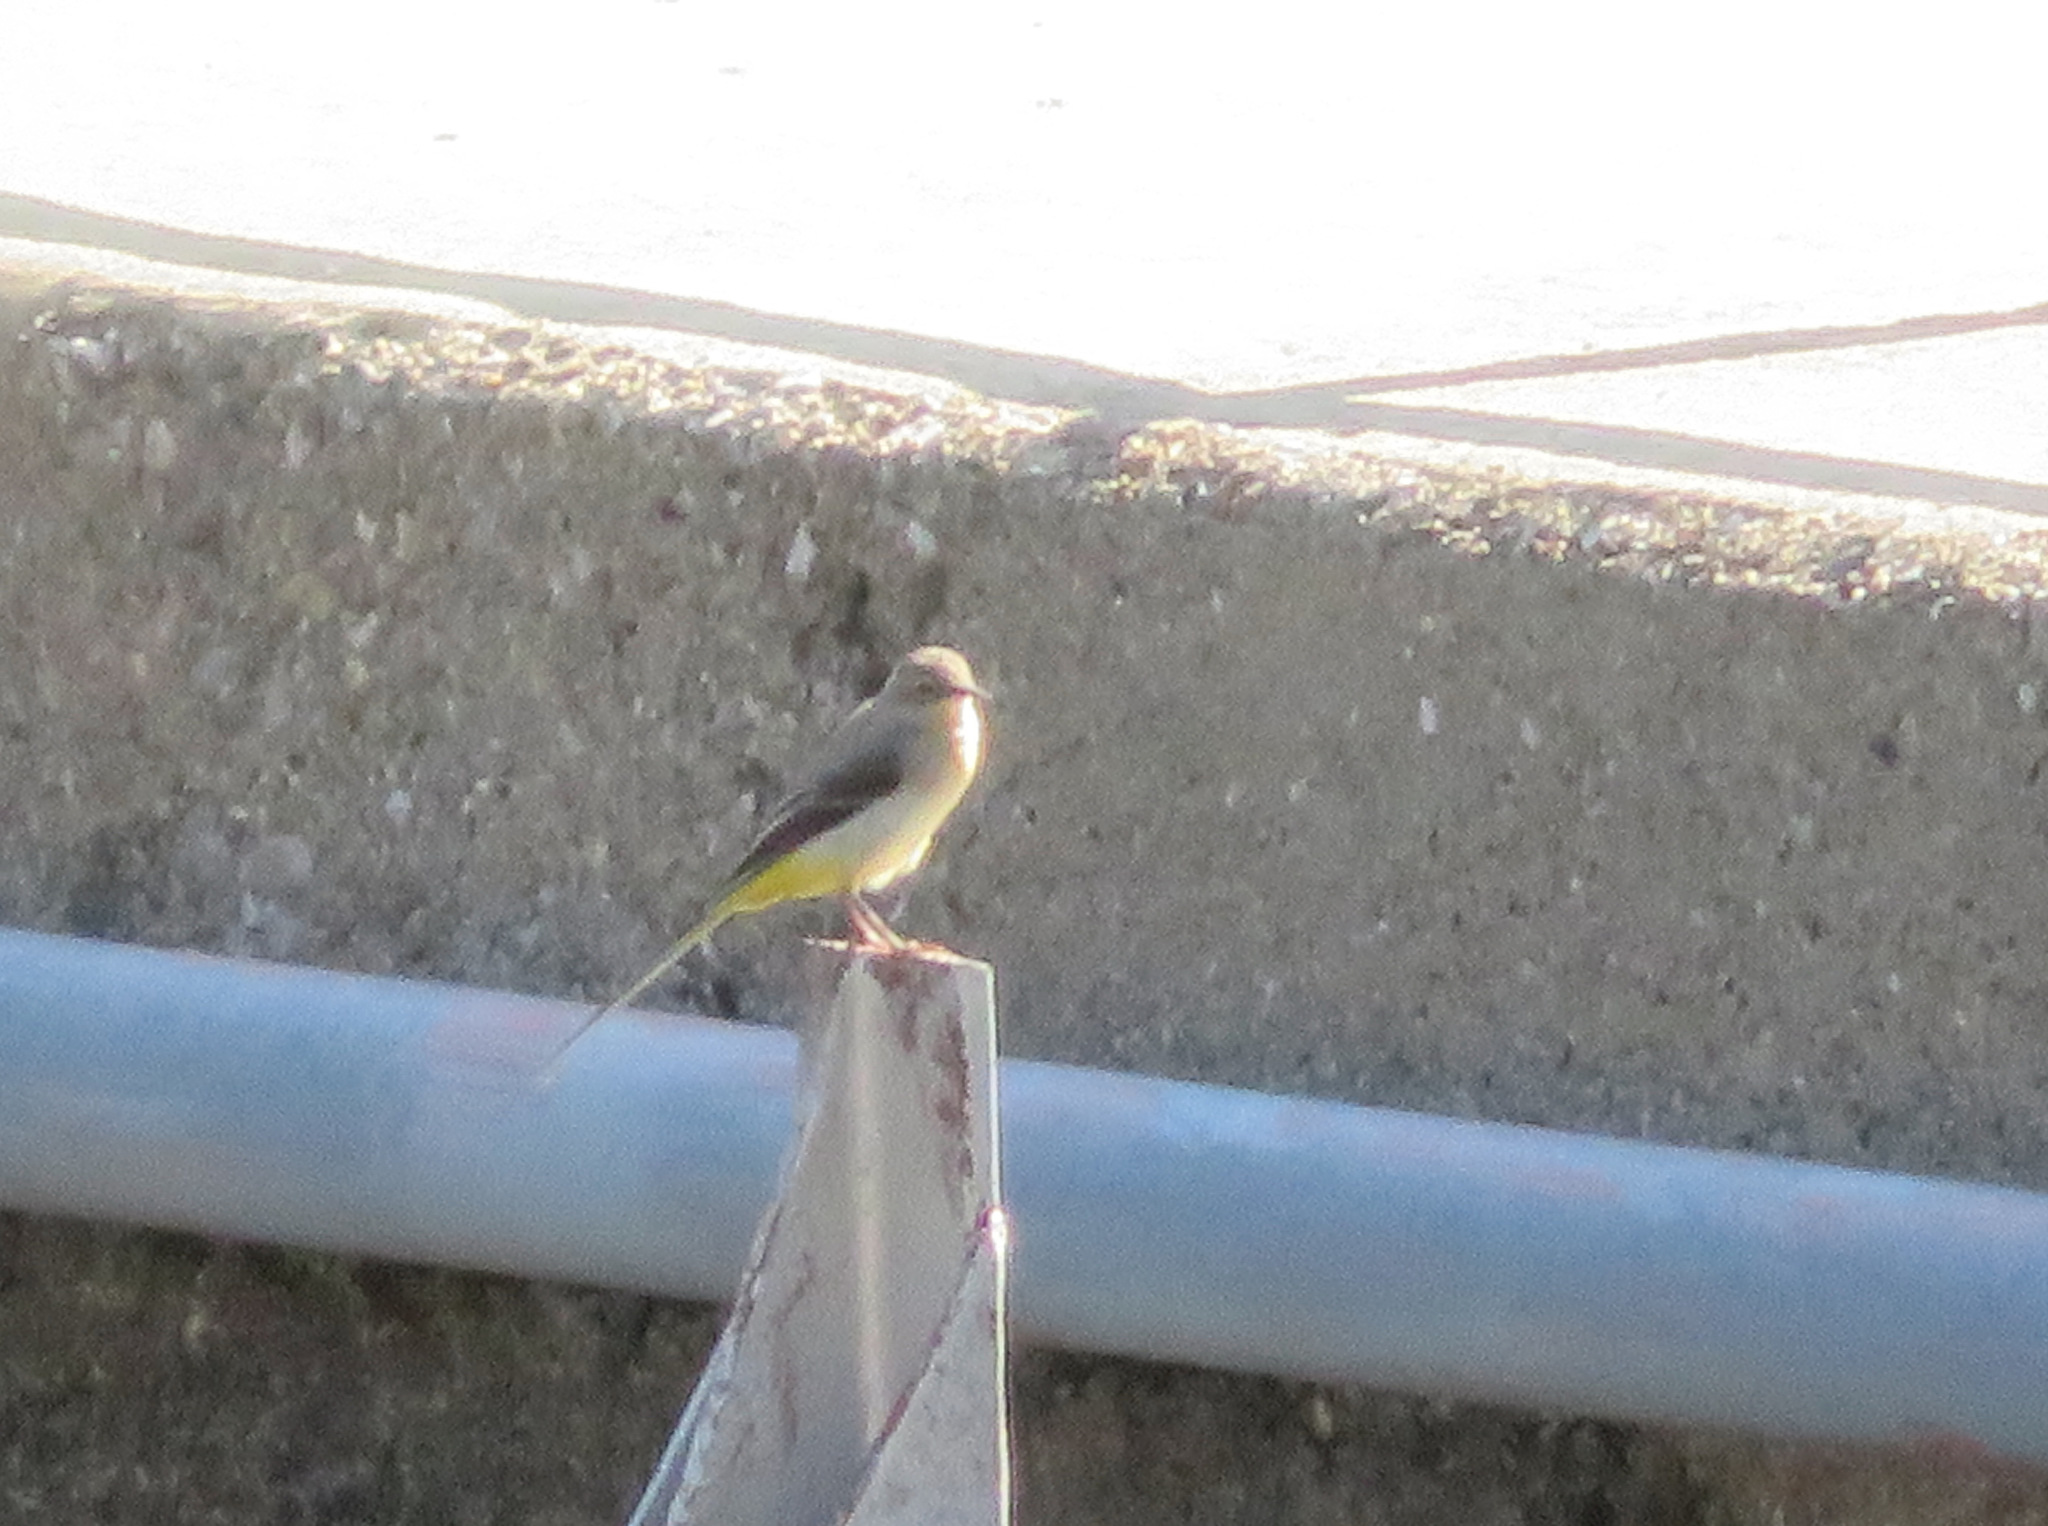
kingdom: Animalia
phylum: Chordata
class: Aves
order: Passeriformes
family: Motacillidae
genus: Motacilla
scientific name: Motacilla cinerea
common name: Grey wagtail
